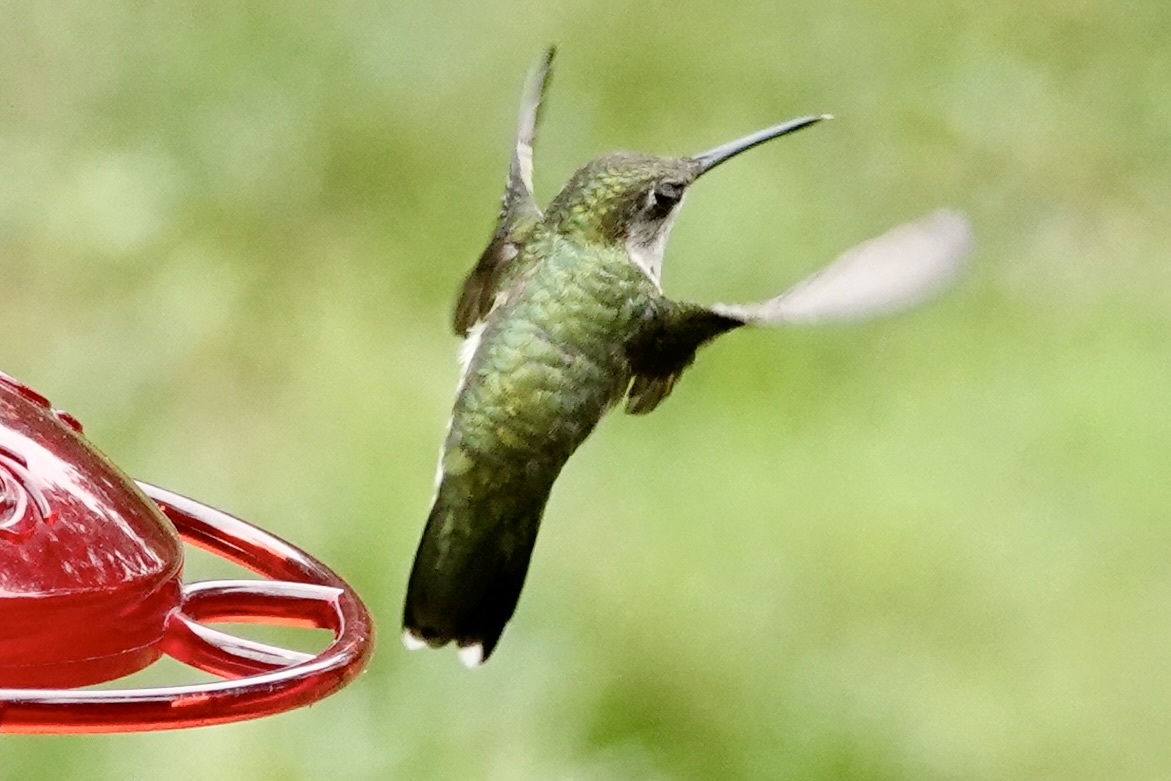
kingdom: Animalia
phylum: Chordata
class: Aves
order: Apodiformes
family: Trochilidae
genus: Archilochus
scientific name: Archilochus colubris
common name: Ruby-throated hummingbird
